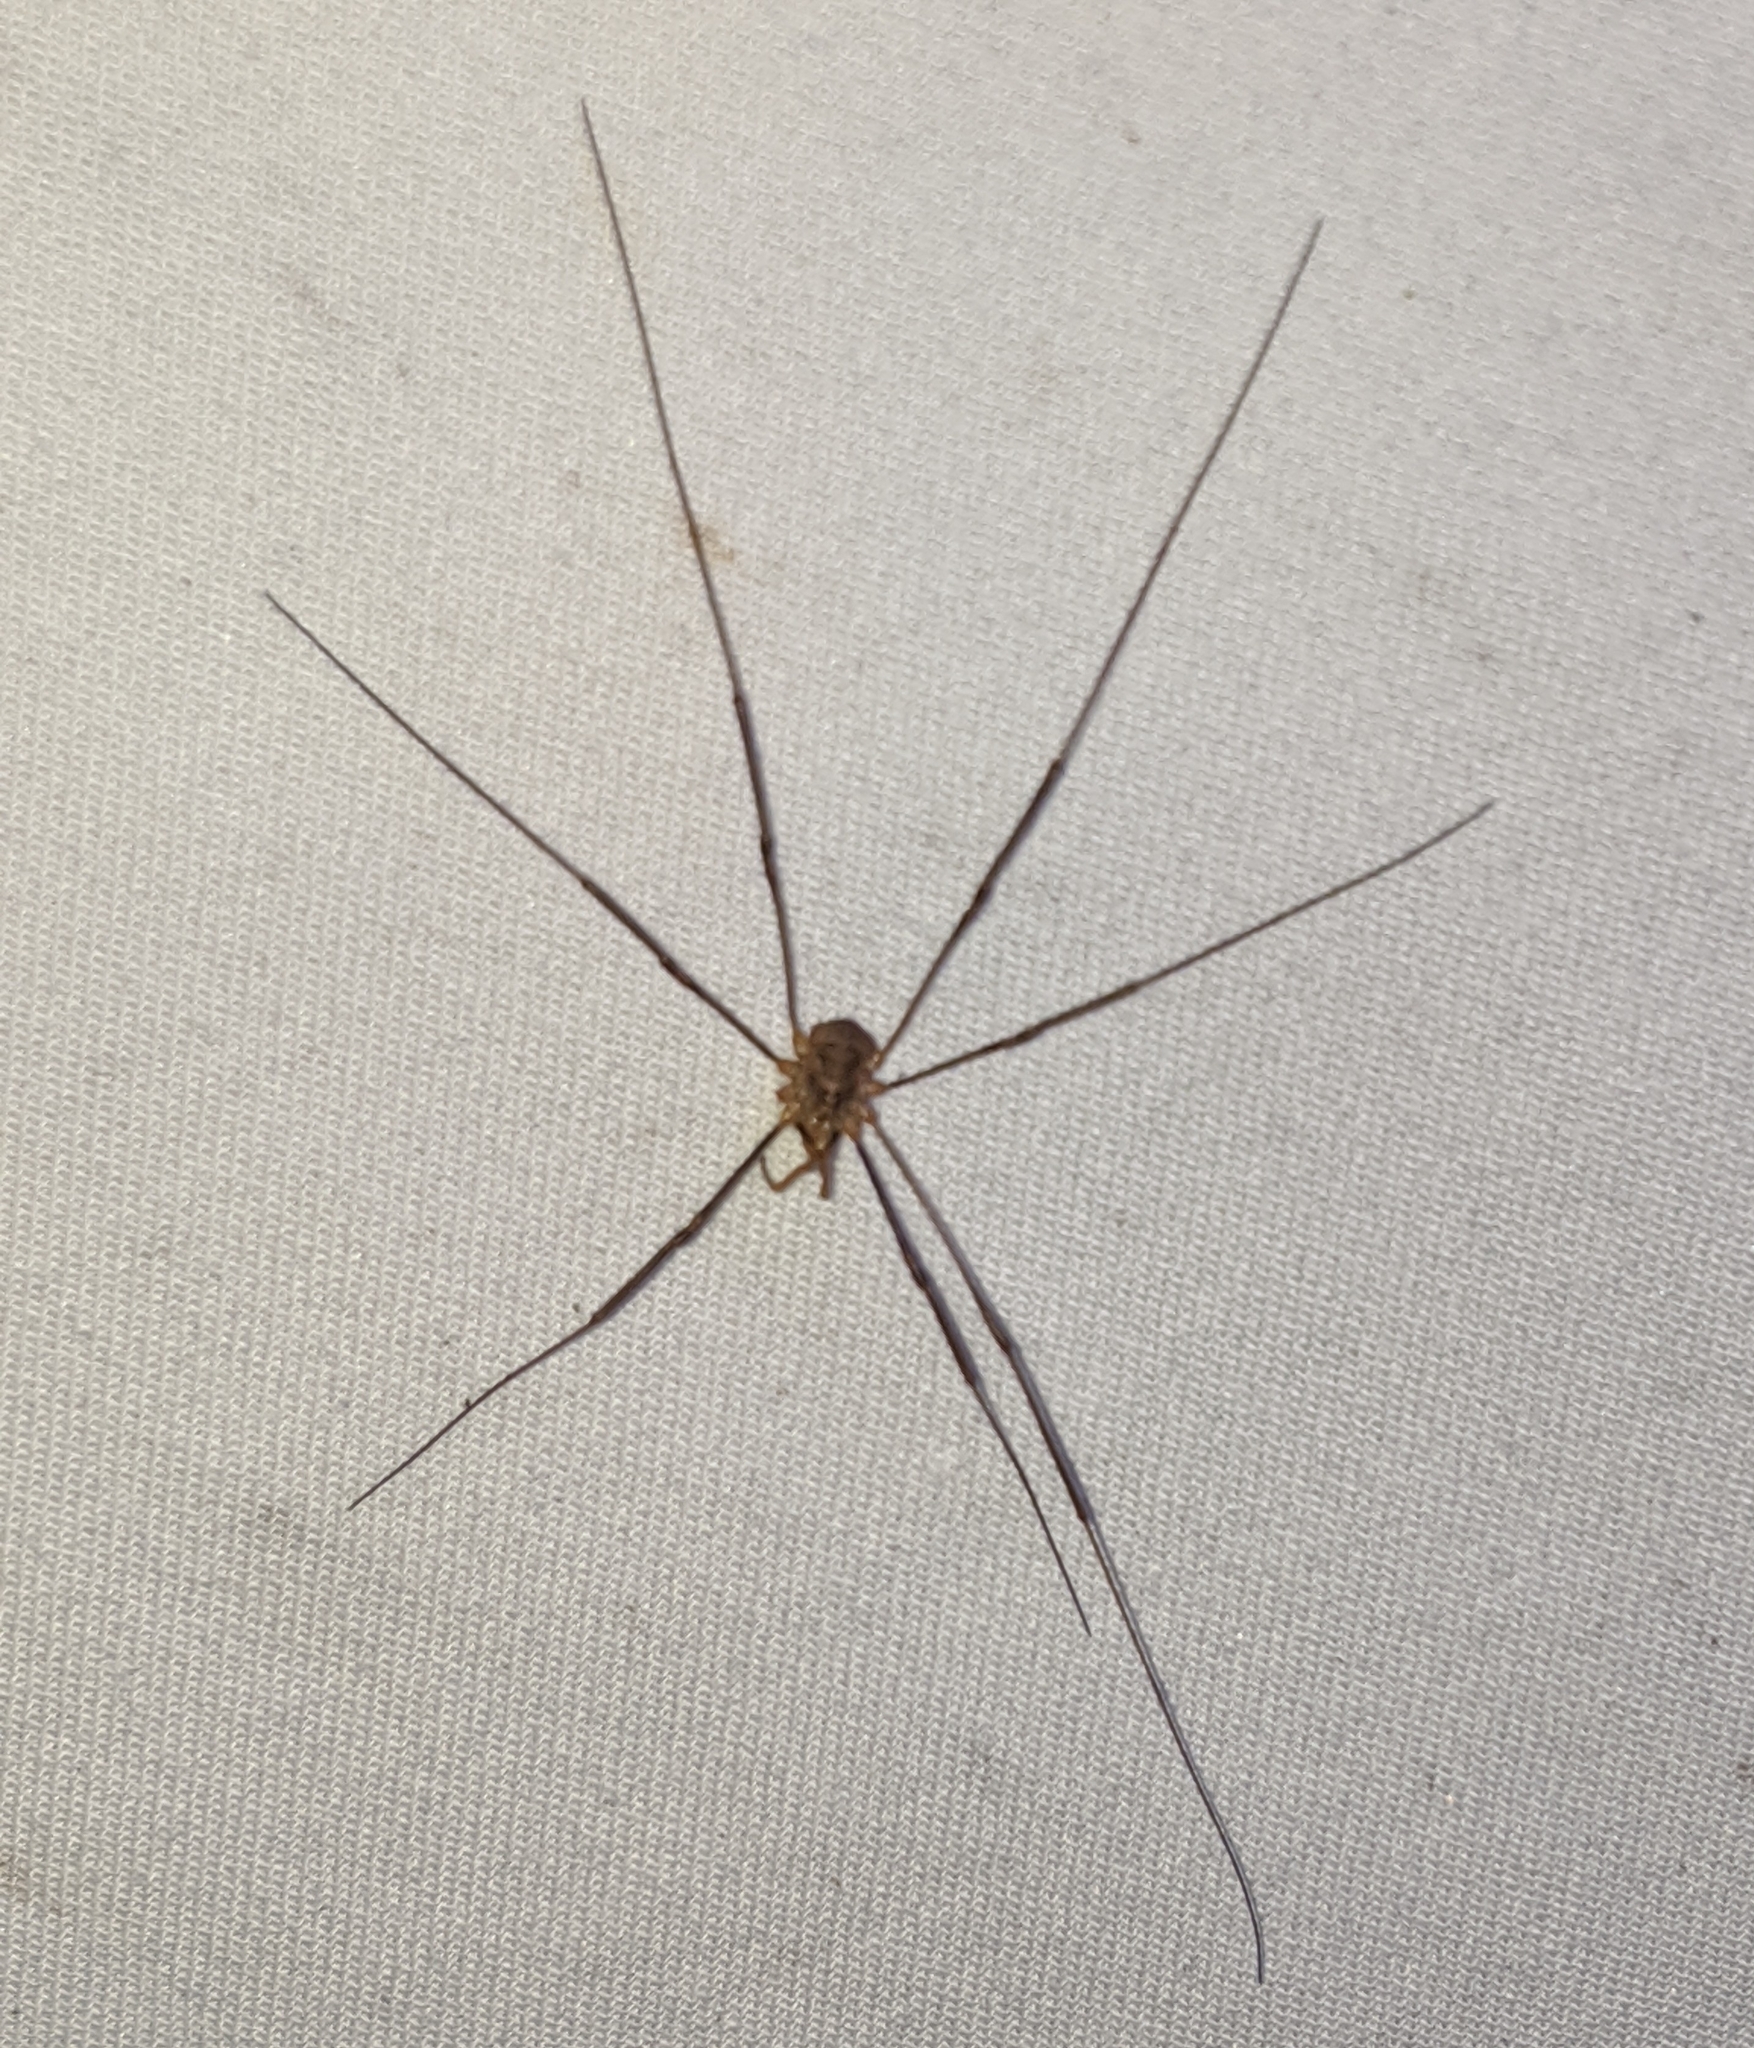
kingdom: Animalia
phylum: Arthropoda
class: Arachnida
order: Opiliones
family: Phalangiidae
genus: Phalangium
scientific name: Phalangium opilio
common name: Daddy longleg
